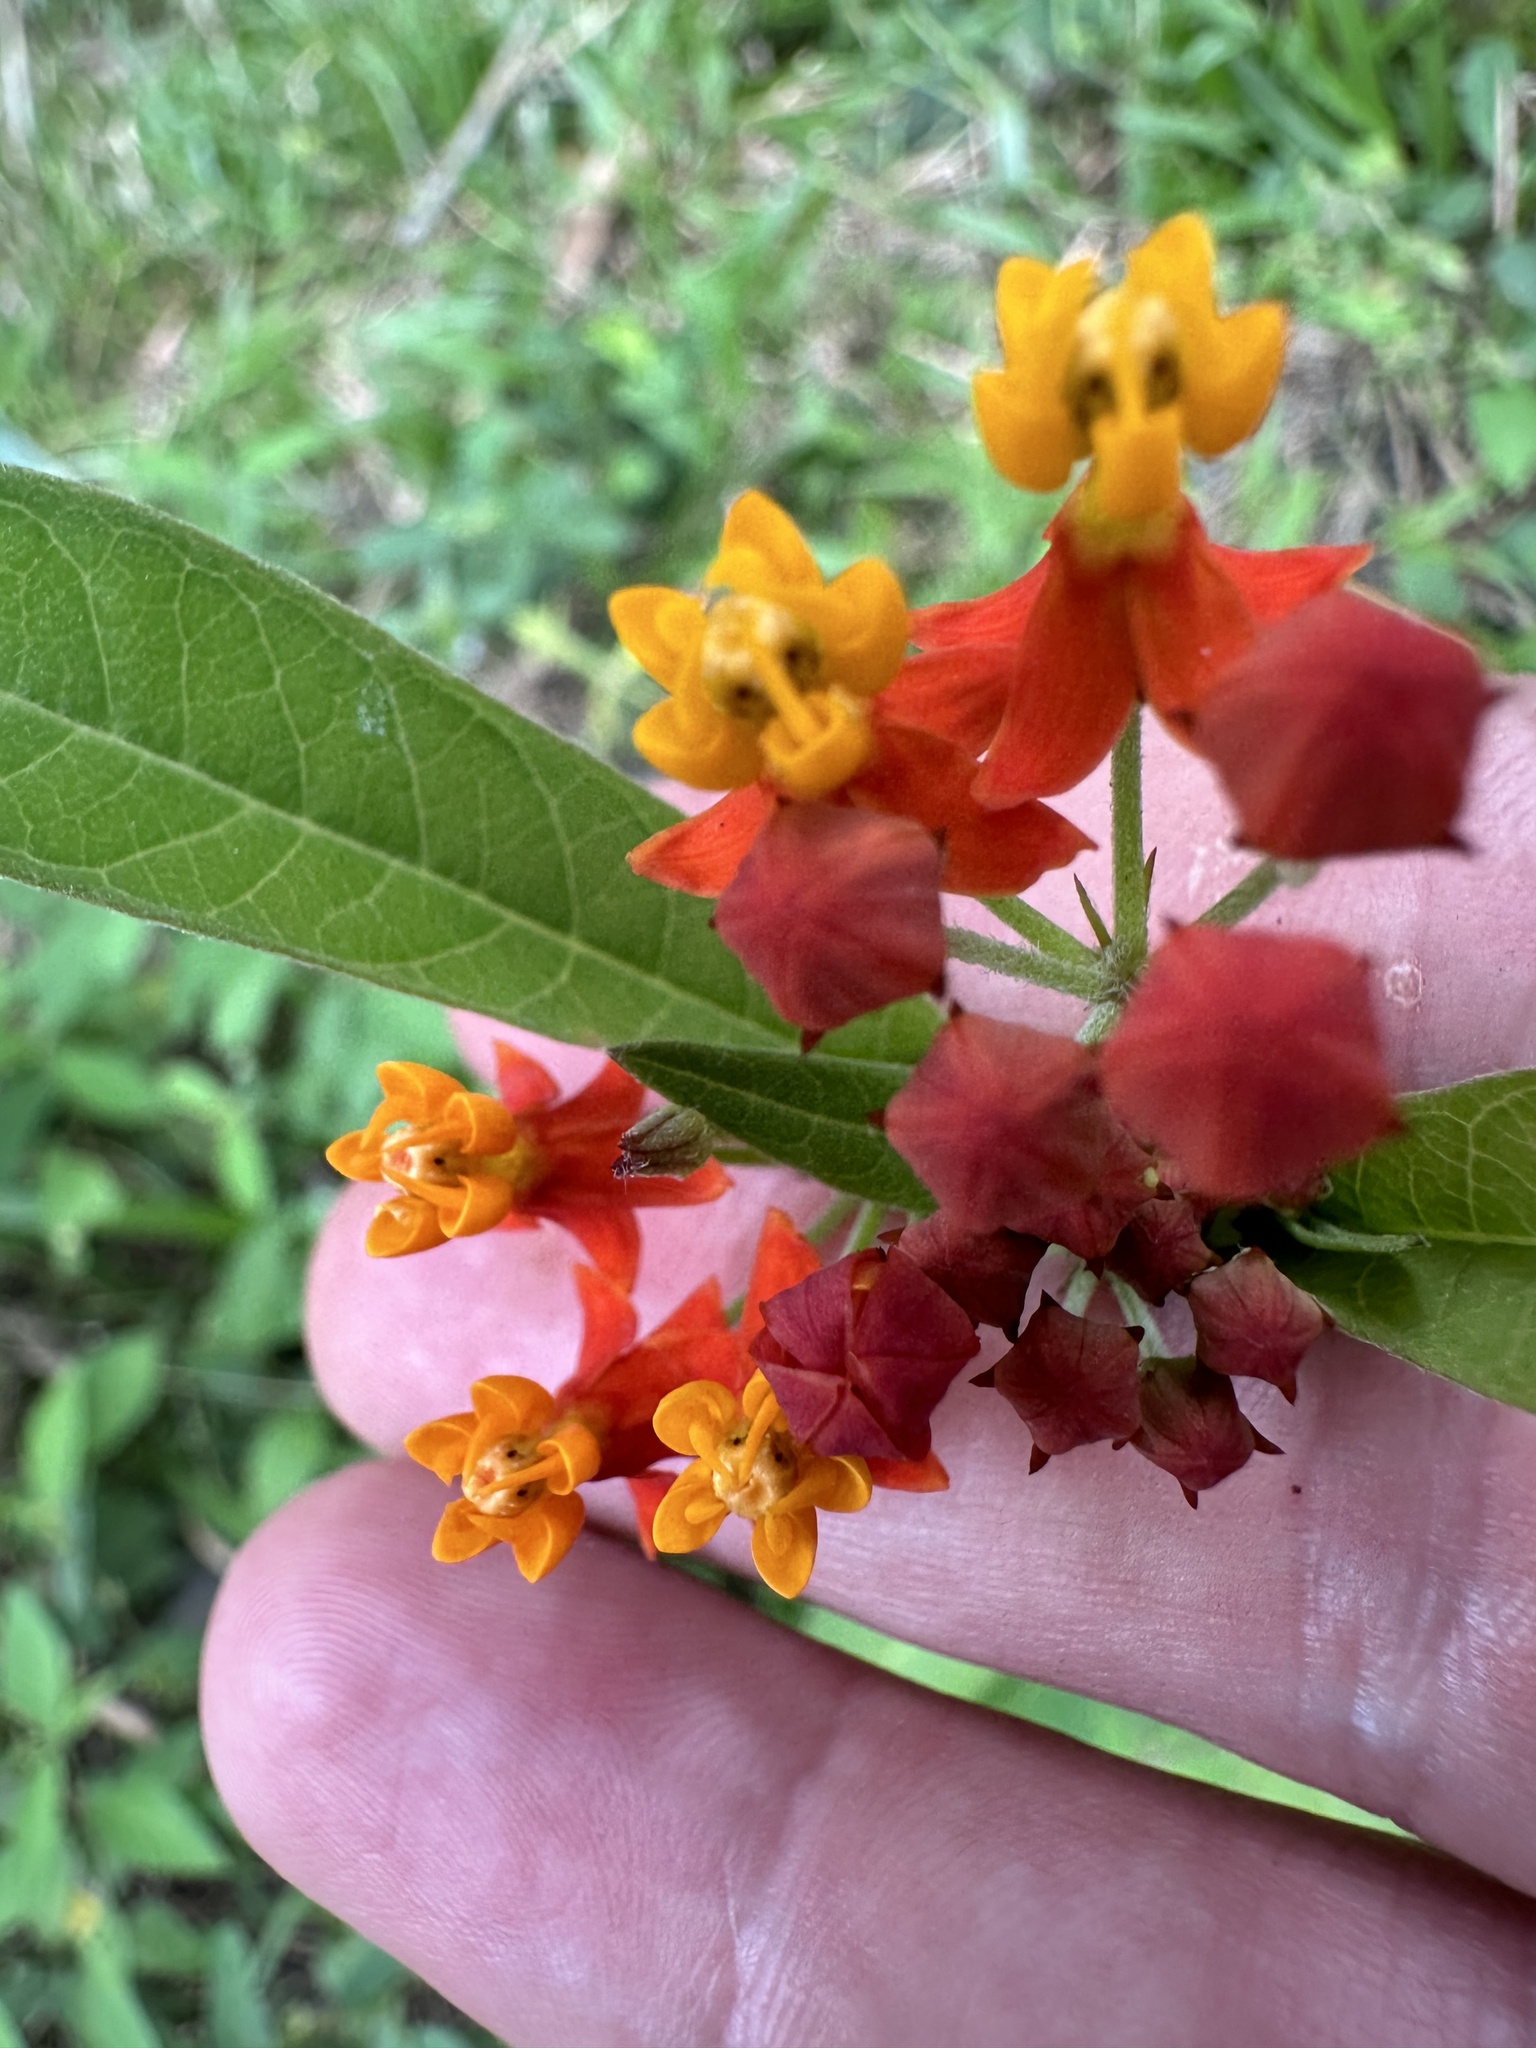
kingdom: Plantae
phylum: Tracheophyta
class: Magnoliopsida
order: Gentianales
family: Apocynaceae
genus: Asclepias
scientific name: Asclepias curassavica
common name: Bloodflower
